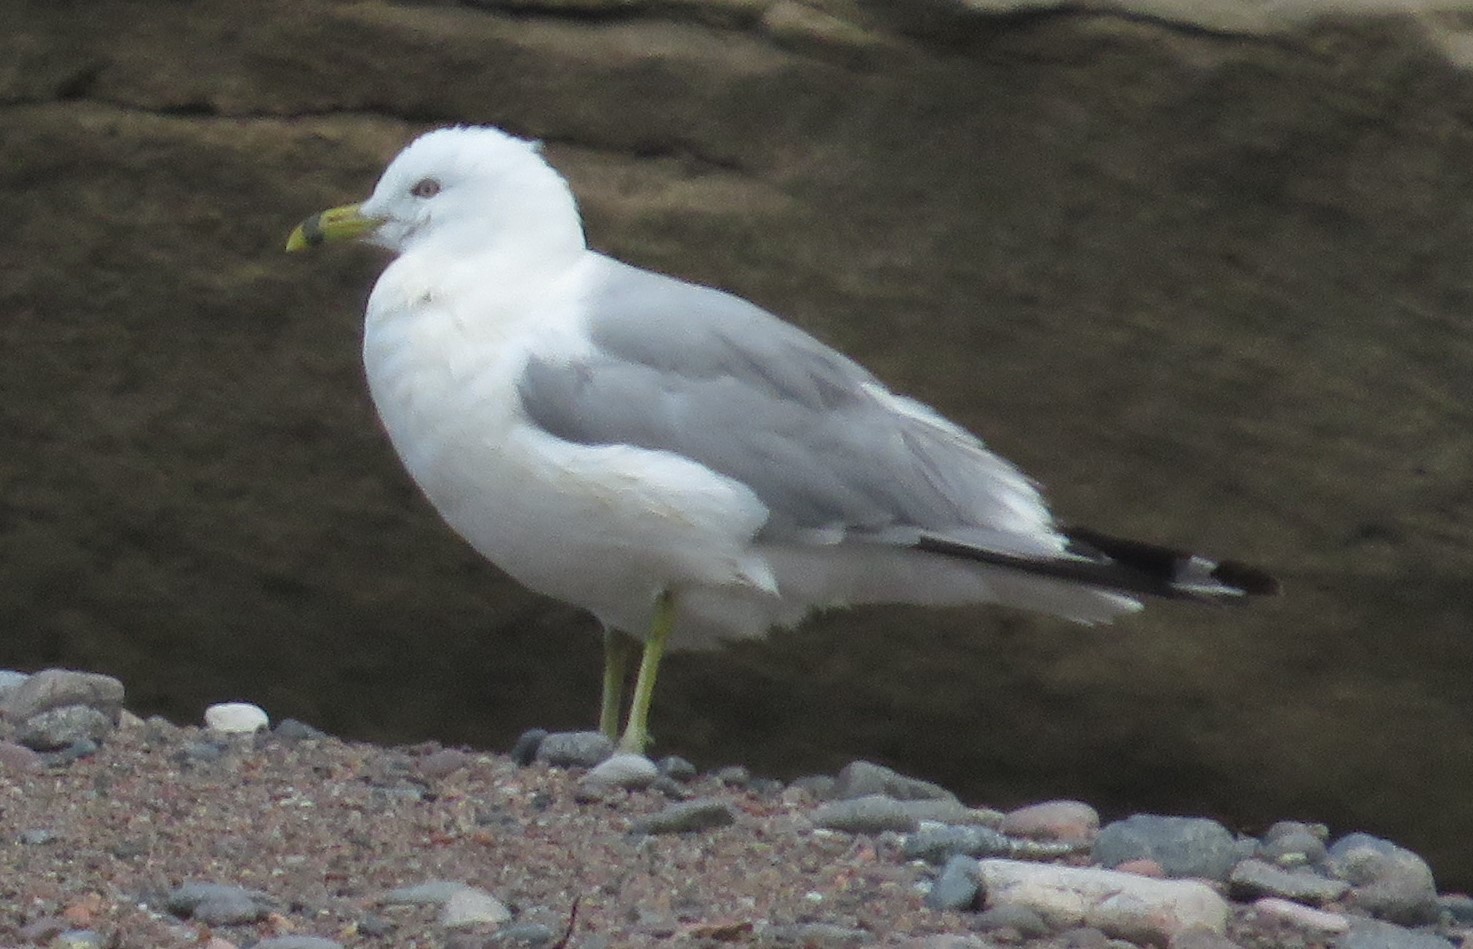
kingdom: Animalia
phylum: Chordata
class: Aves
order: Charadriiformes
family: Laridae
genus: Larus
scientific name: Larus delawarensis
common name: Ring-billed gull
